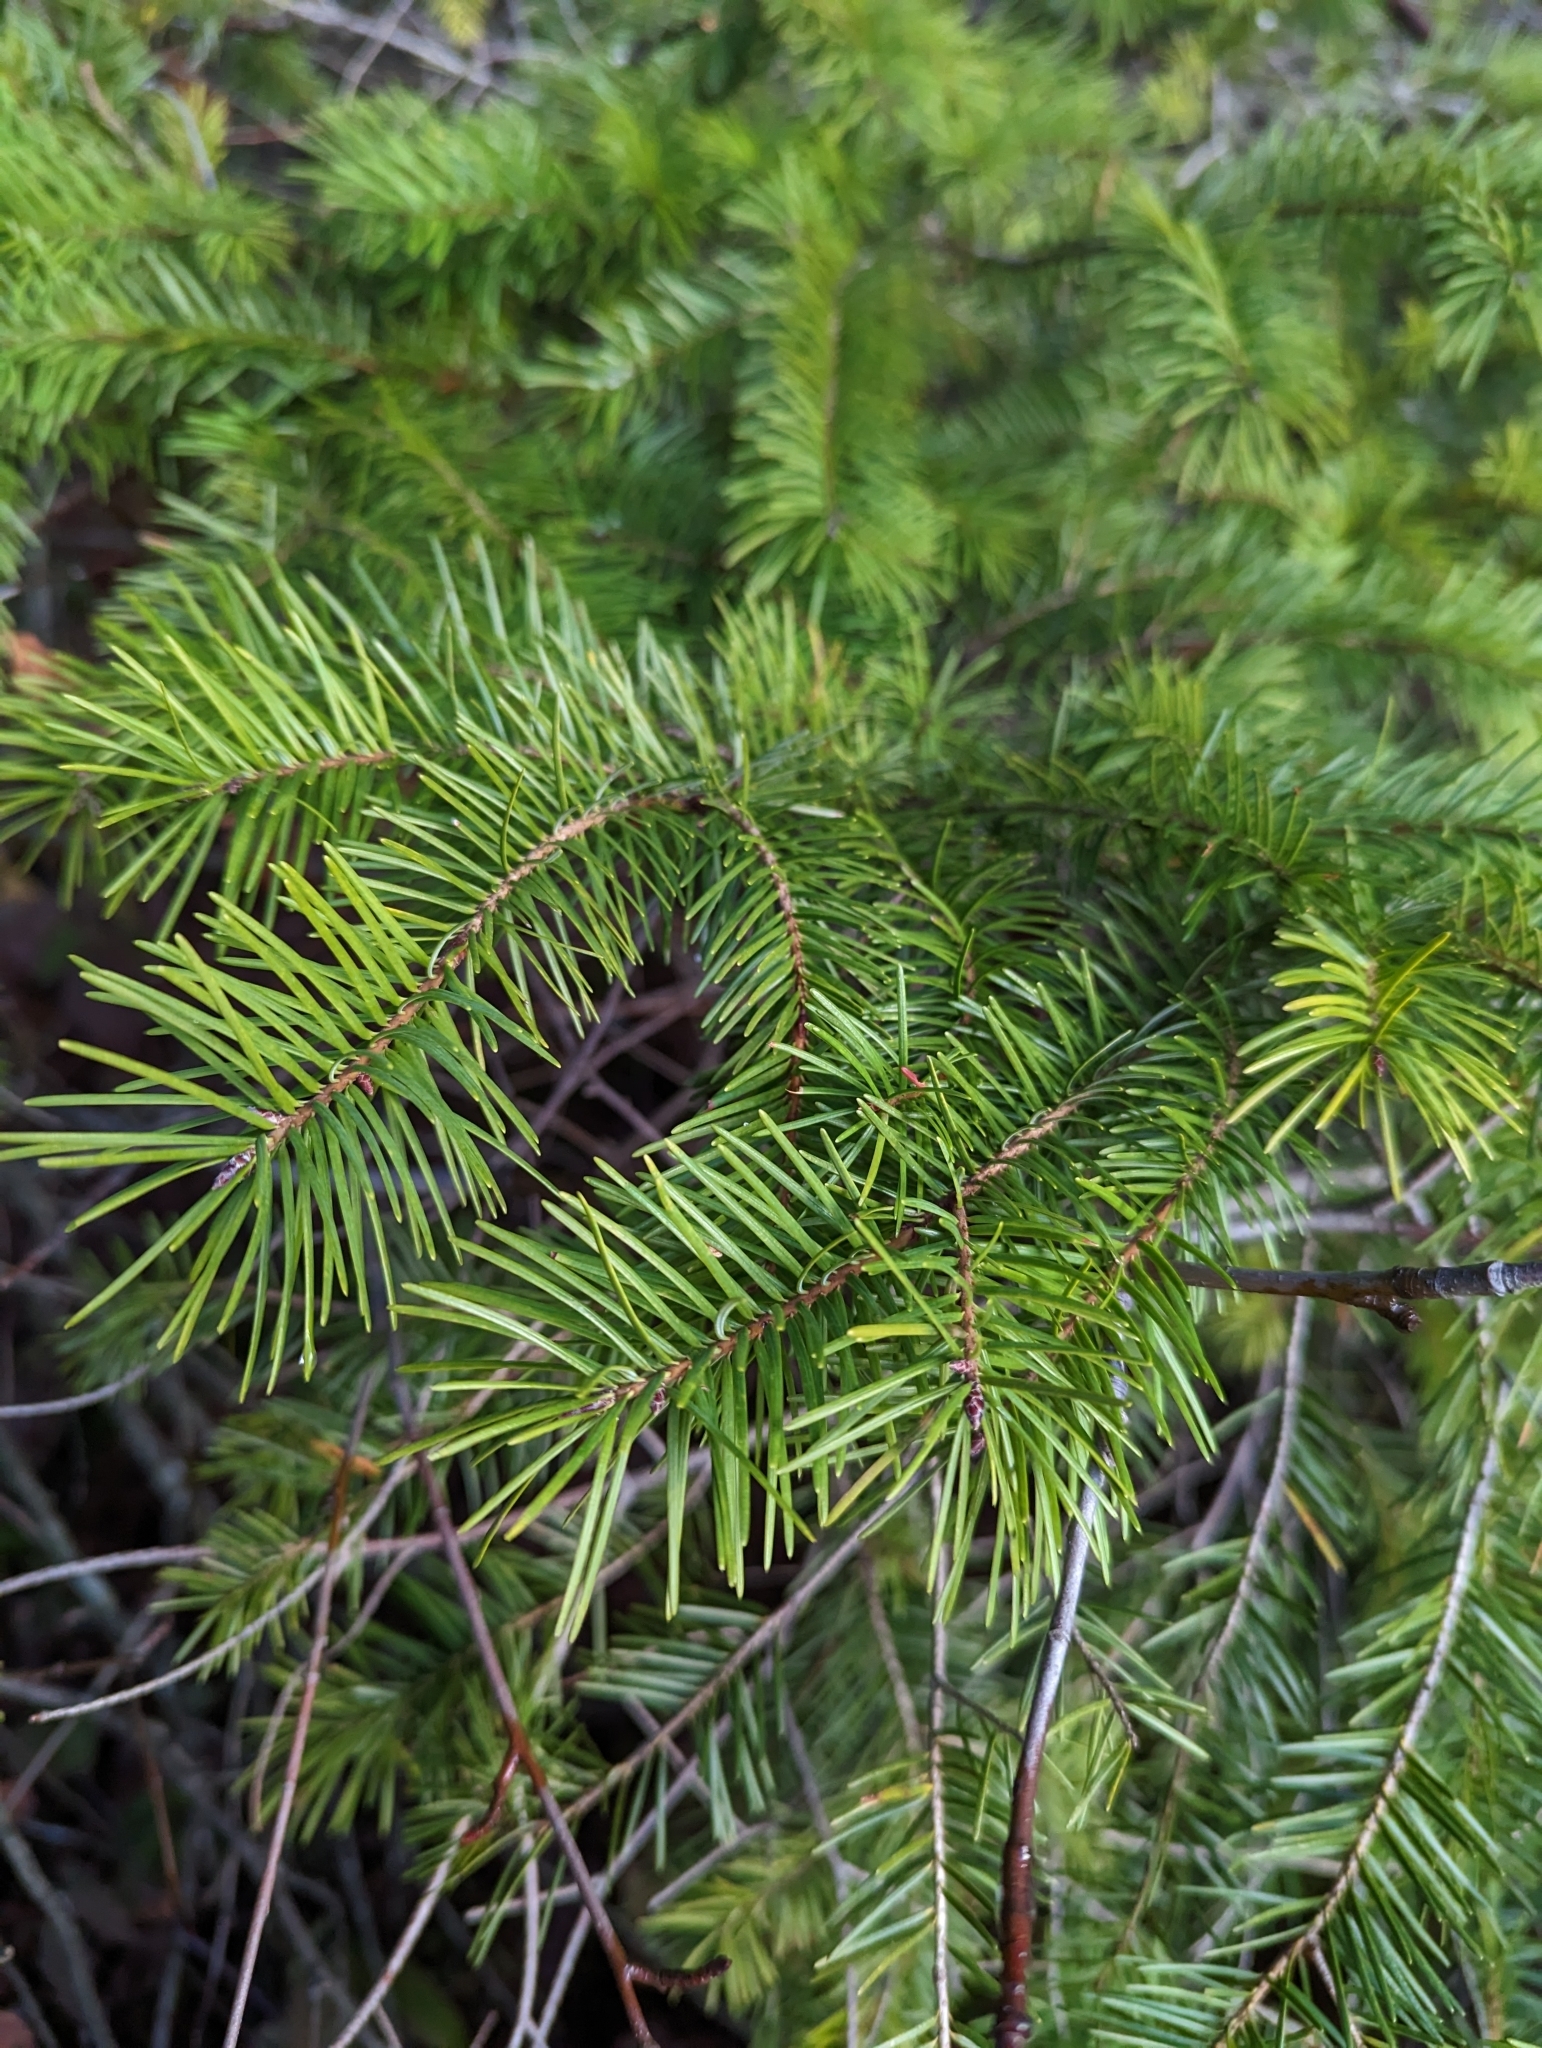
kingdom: Plantae
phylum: Tracheophyta
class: Pinopsida
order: Pinales
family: Pinaceae
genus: Pseudotsuga
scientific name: Pseudotsuga menziesii
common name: Douglas fir
